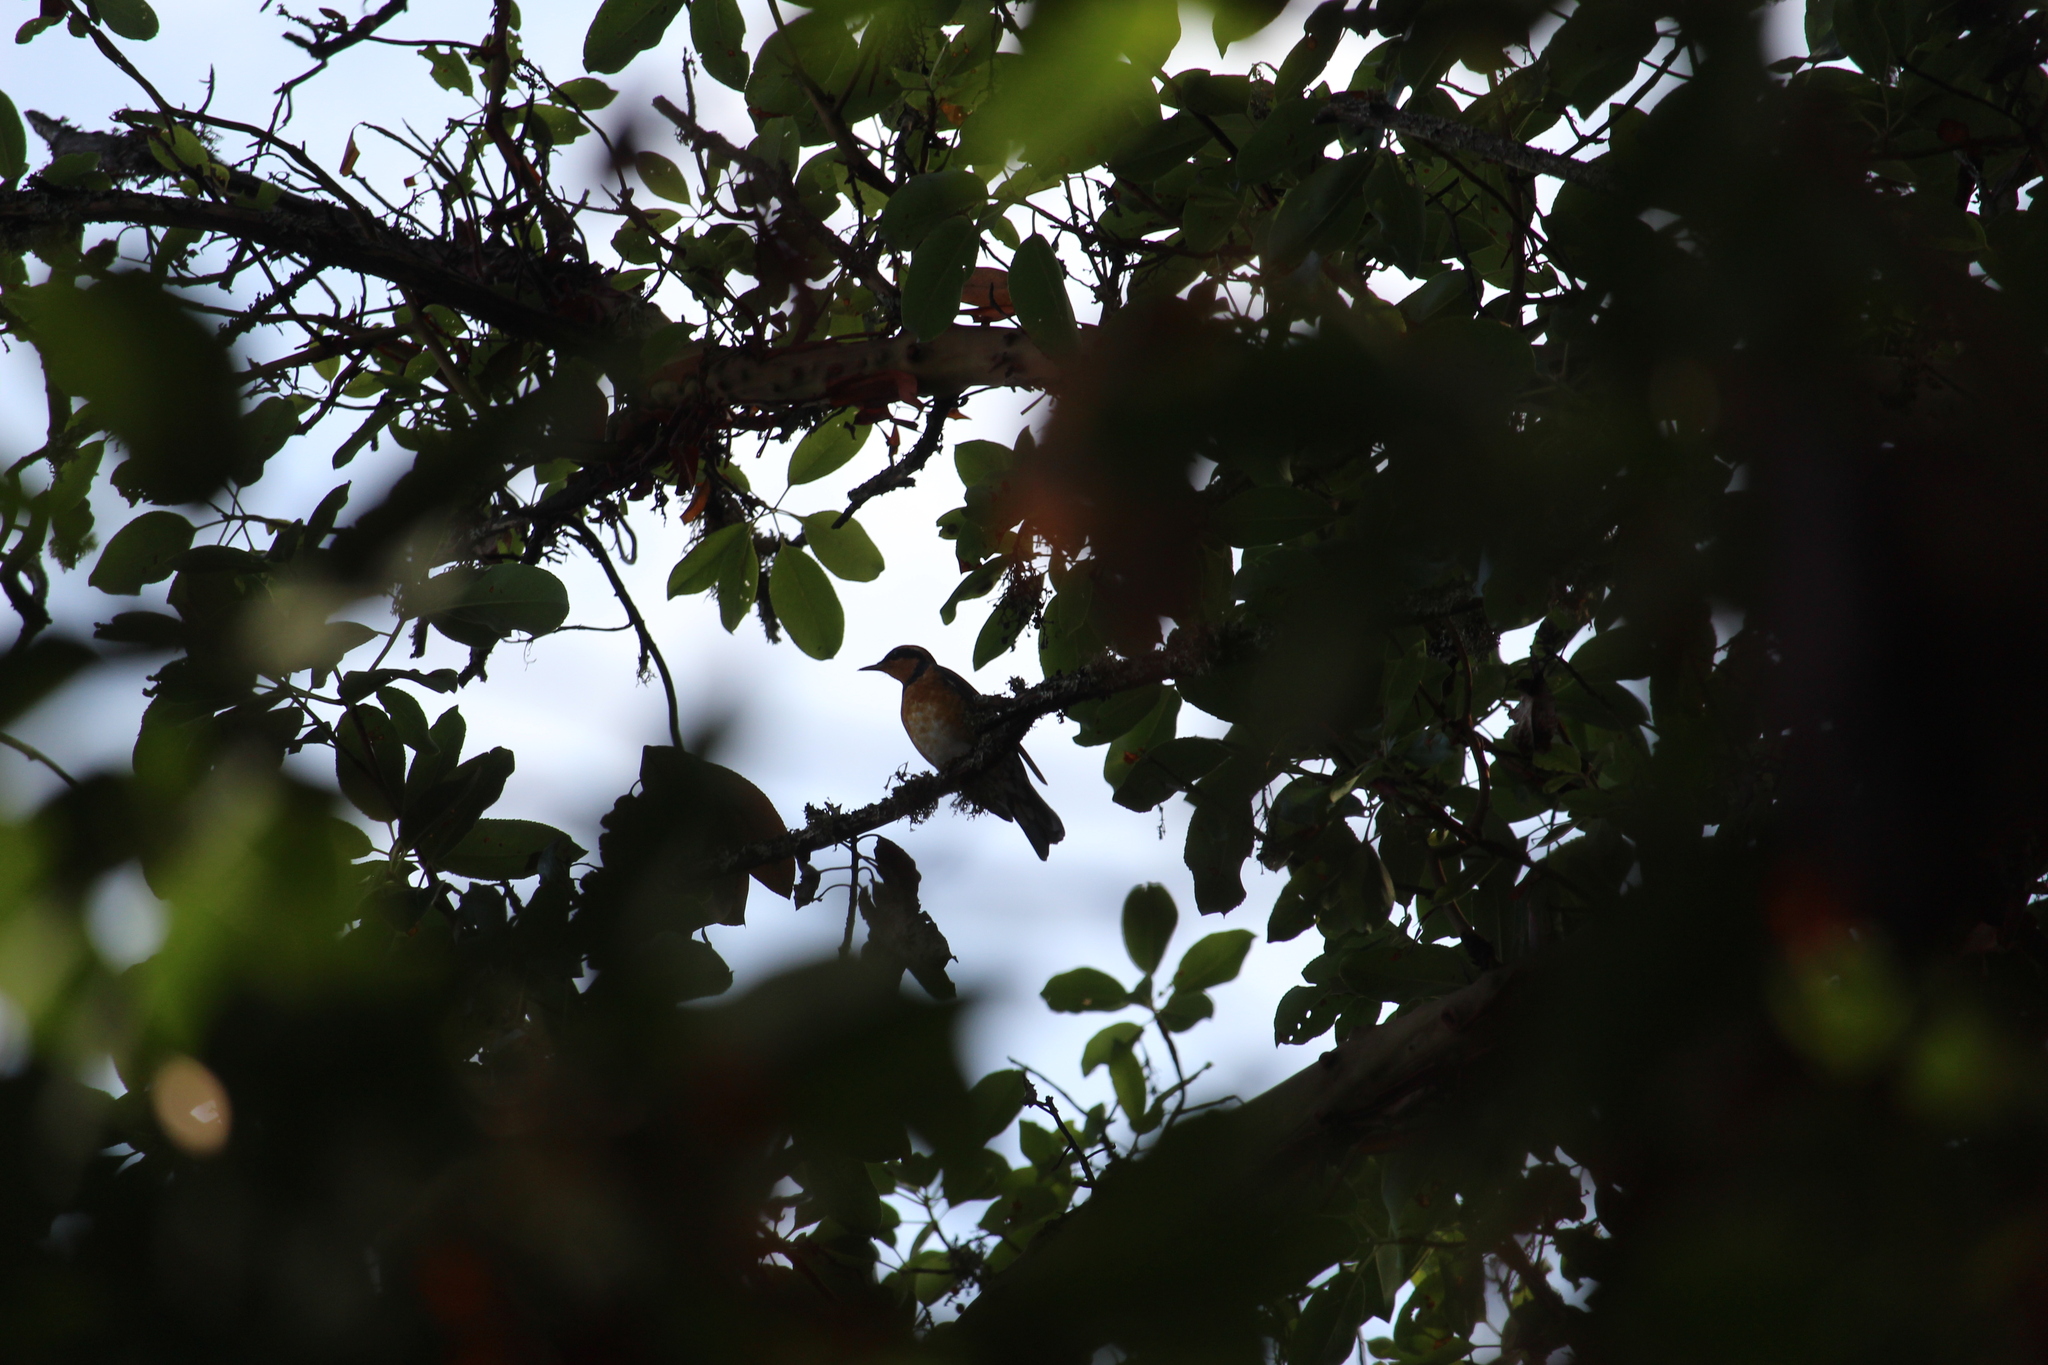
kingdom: Animalia
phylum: Chordata
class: Aves
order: Passeriformes
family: Turdidae
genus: Ixoreus
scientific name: Ixoreus naevius
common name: Varied thrush
